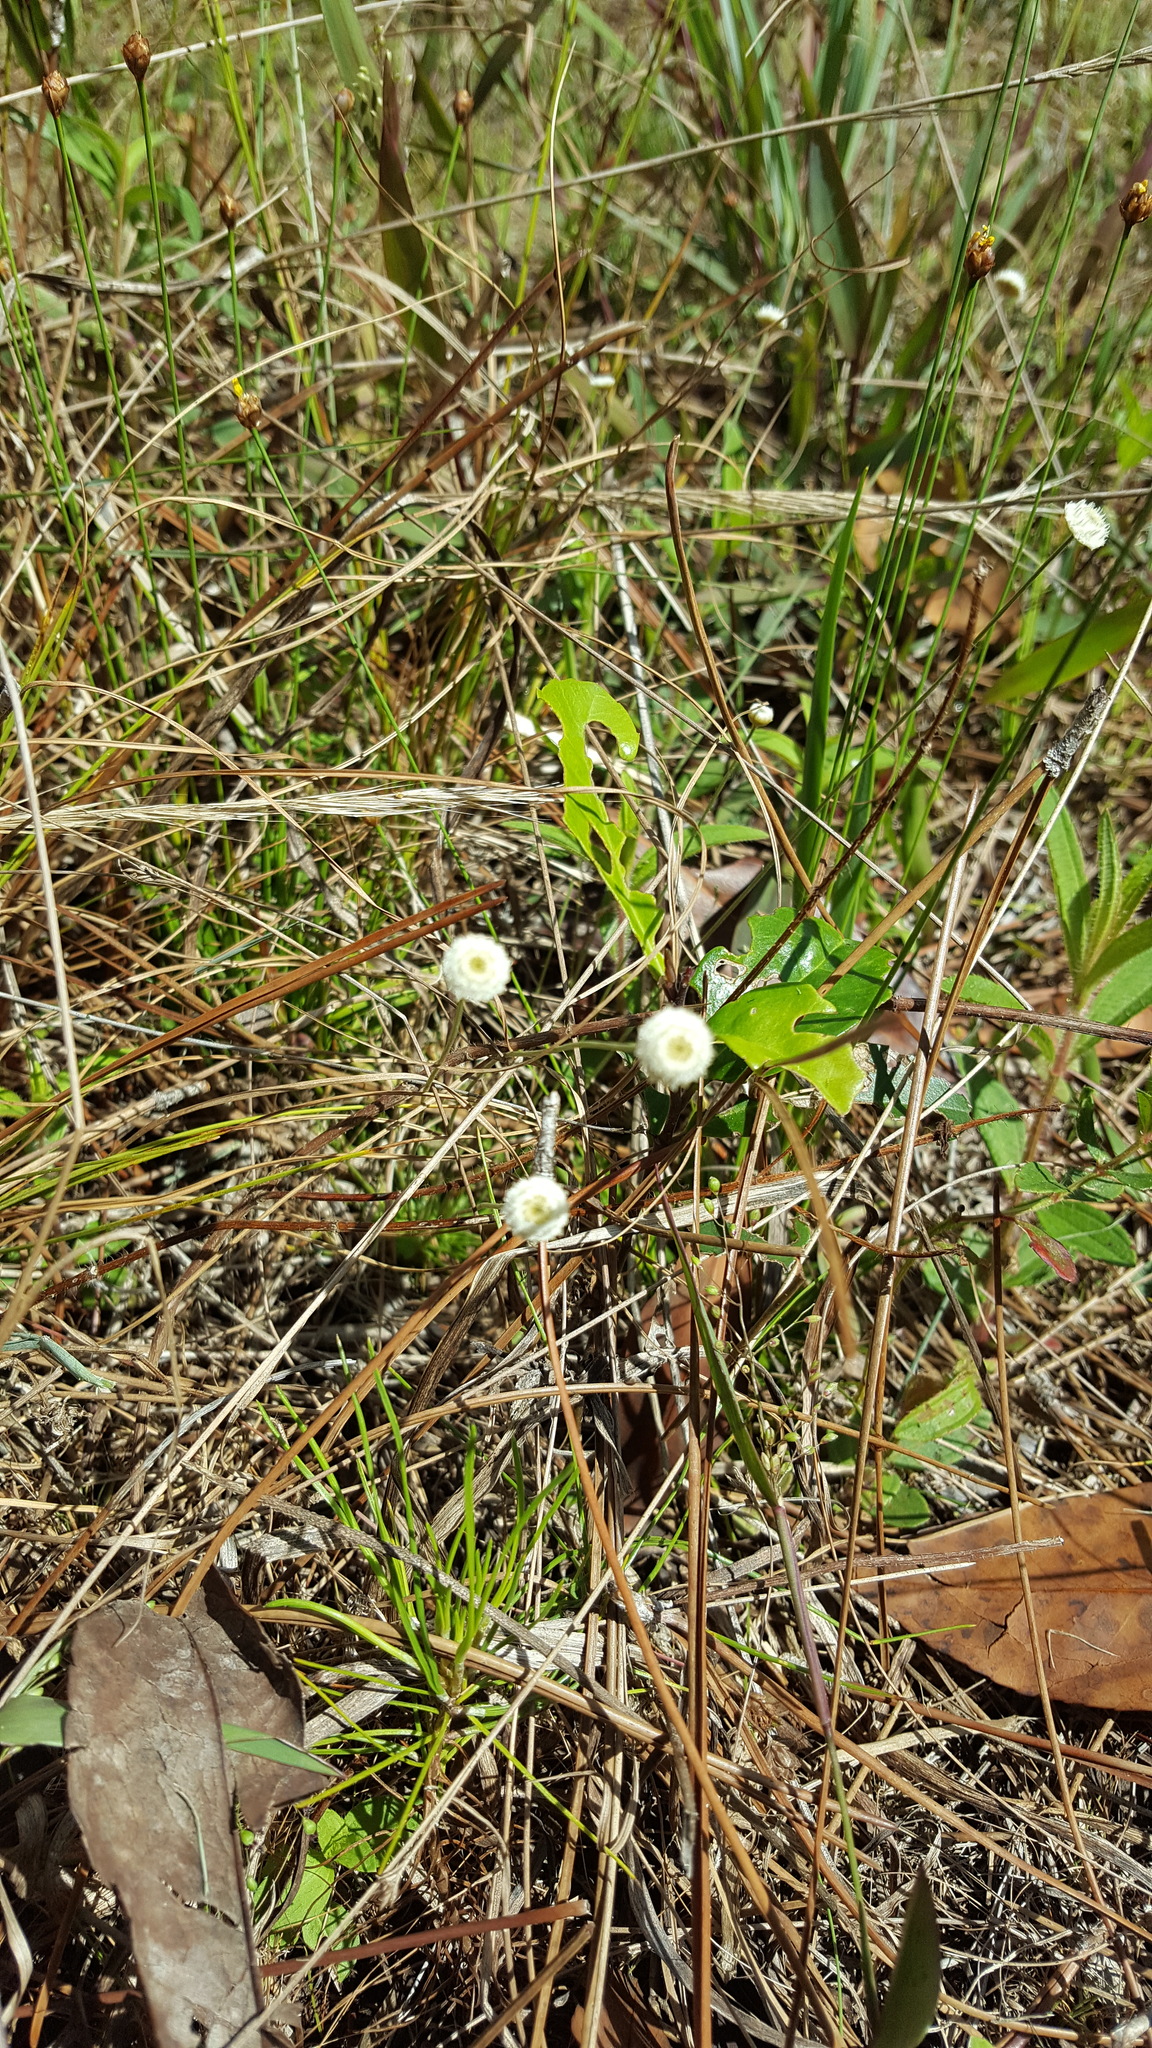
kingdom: Plantae
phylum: Tracheophyta
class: Liliopsida
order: Poales
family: Eriocaulaceae
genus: Syngonanthus
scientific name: Syngonanthus flavidulus
